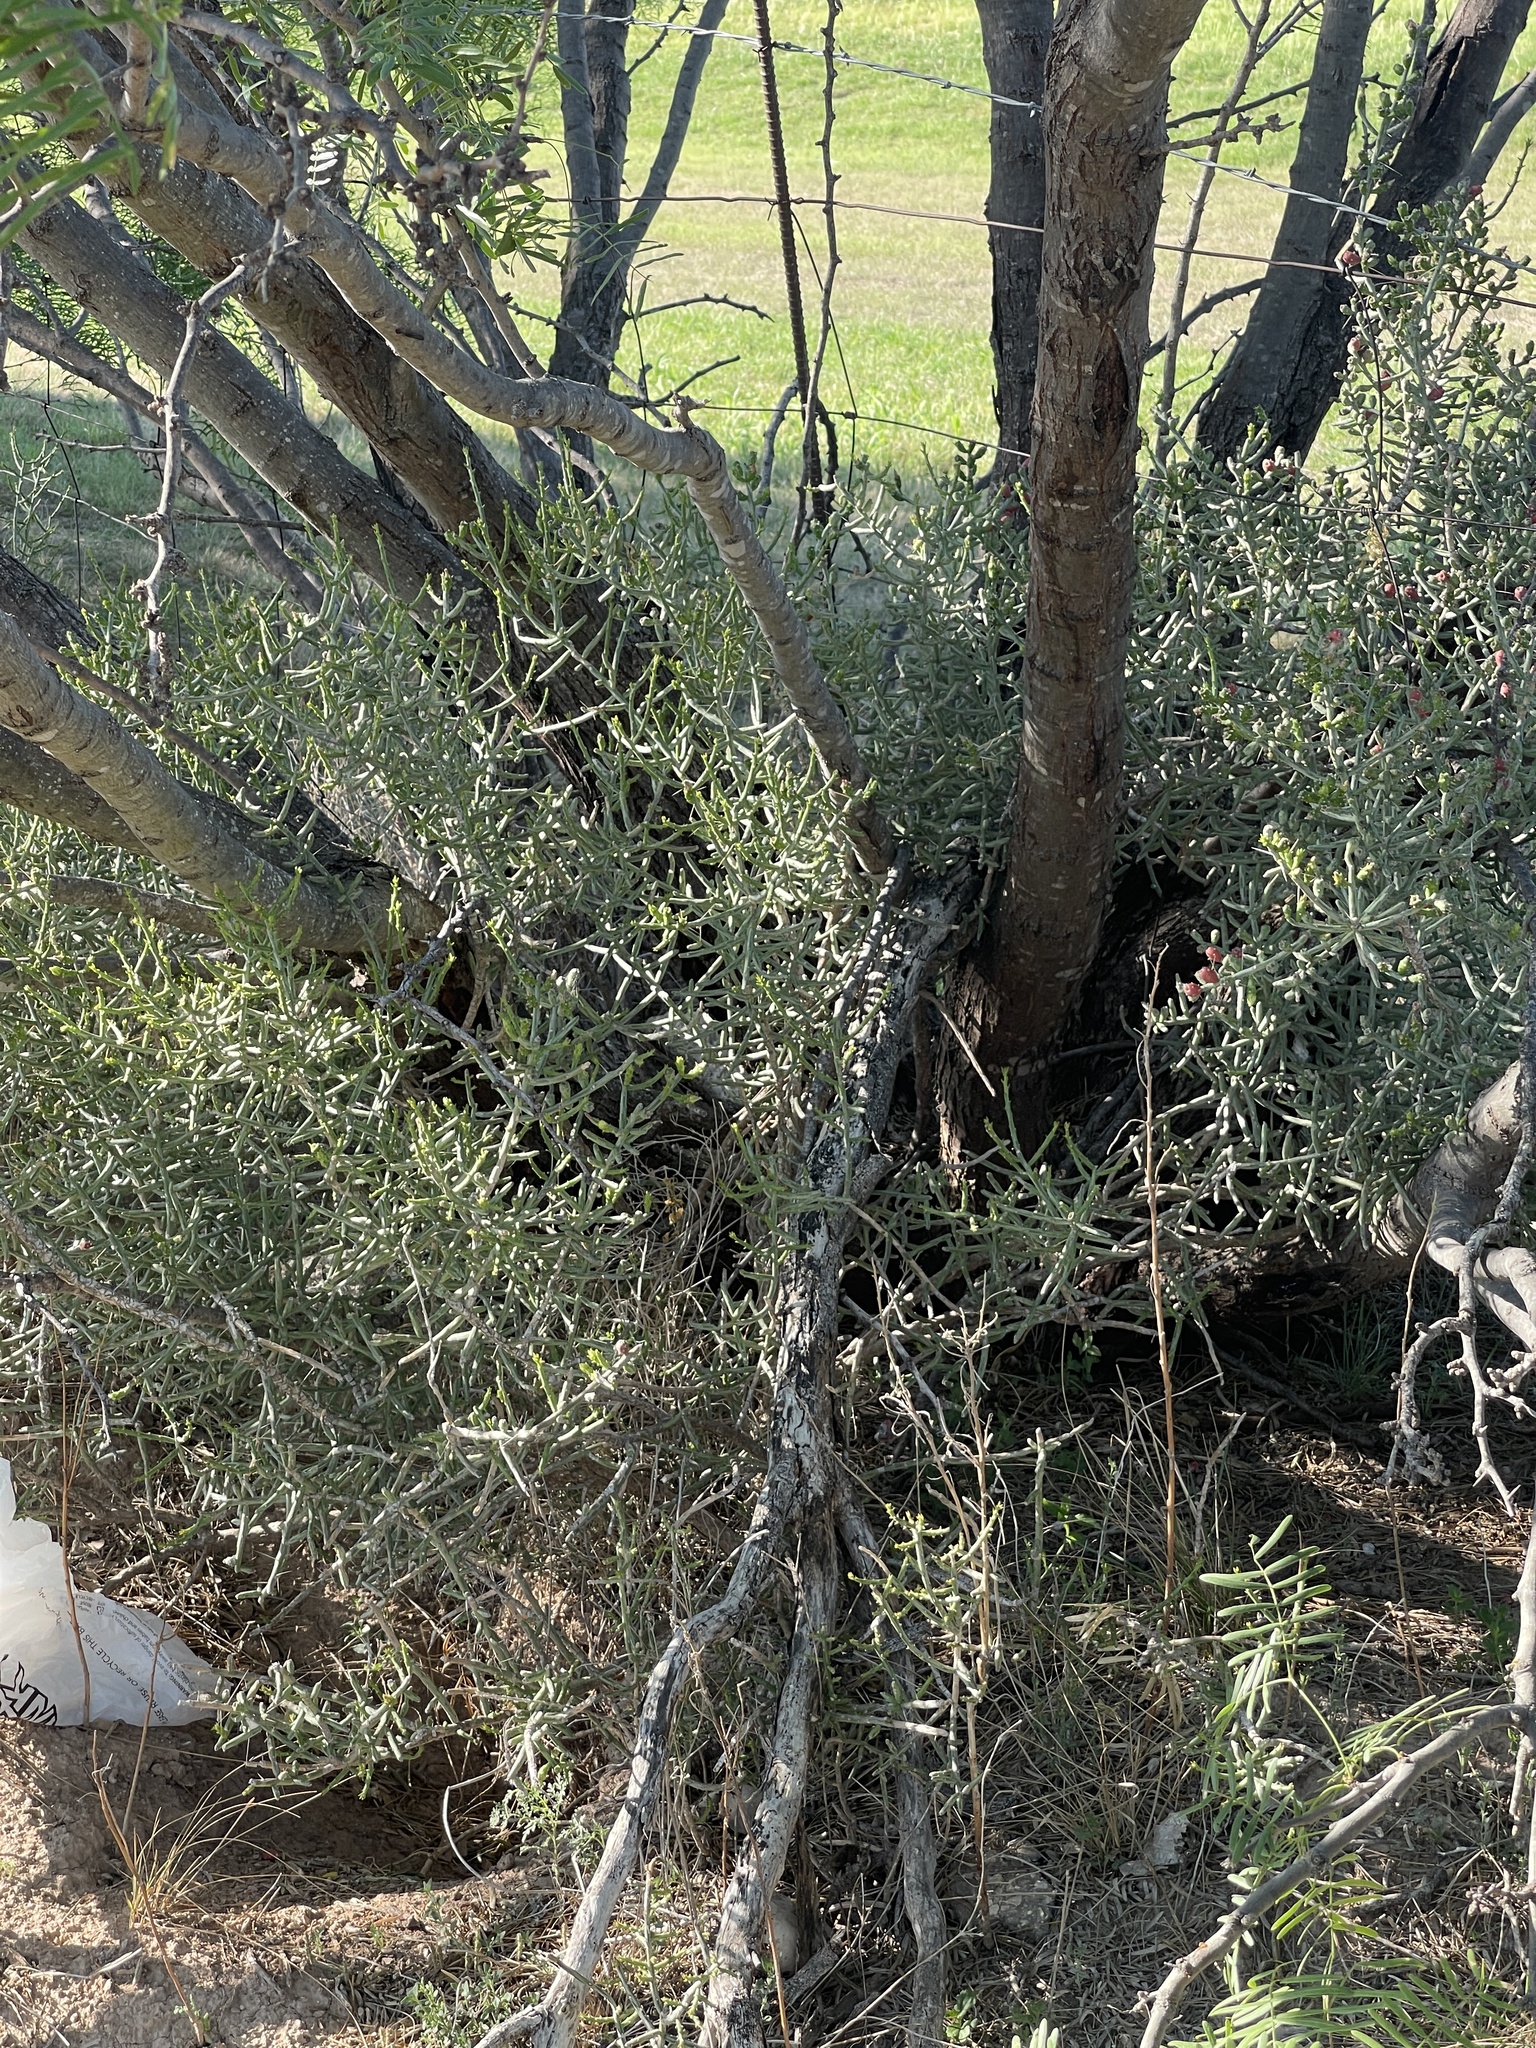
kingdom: Plantae
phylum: Tracheophyta
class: Magnoliopsida
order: Caryophyllales
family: Cactaceae
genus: Cylindropuntia
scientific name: Cylindropuntia leptocaulis
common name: Christmas cactus
